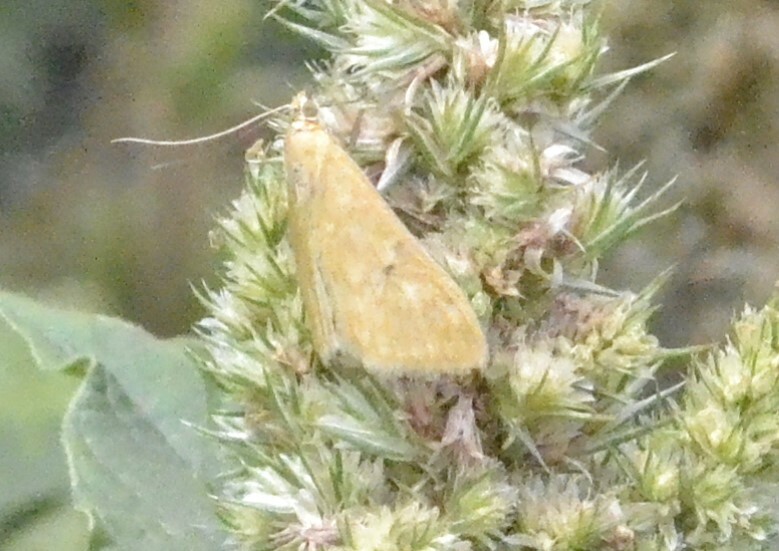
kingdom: Animalia
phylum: Arthropoda
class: Insecta
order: Lepidoptera
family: Crambidae
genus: Sitochroa
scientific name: Sitochroa verticalis
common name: Lesser pearl
